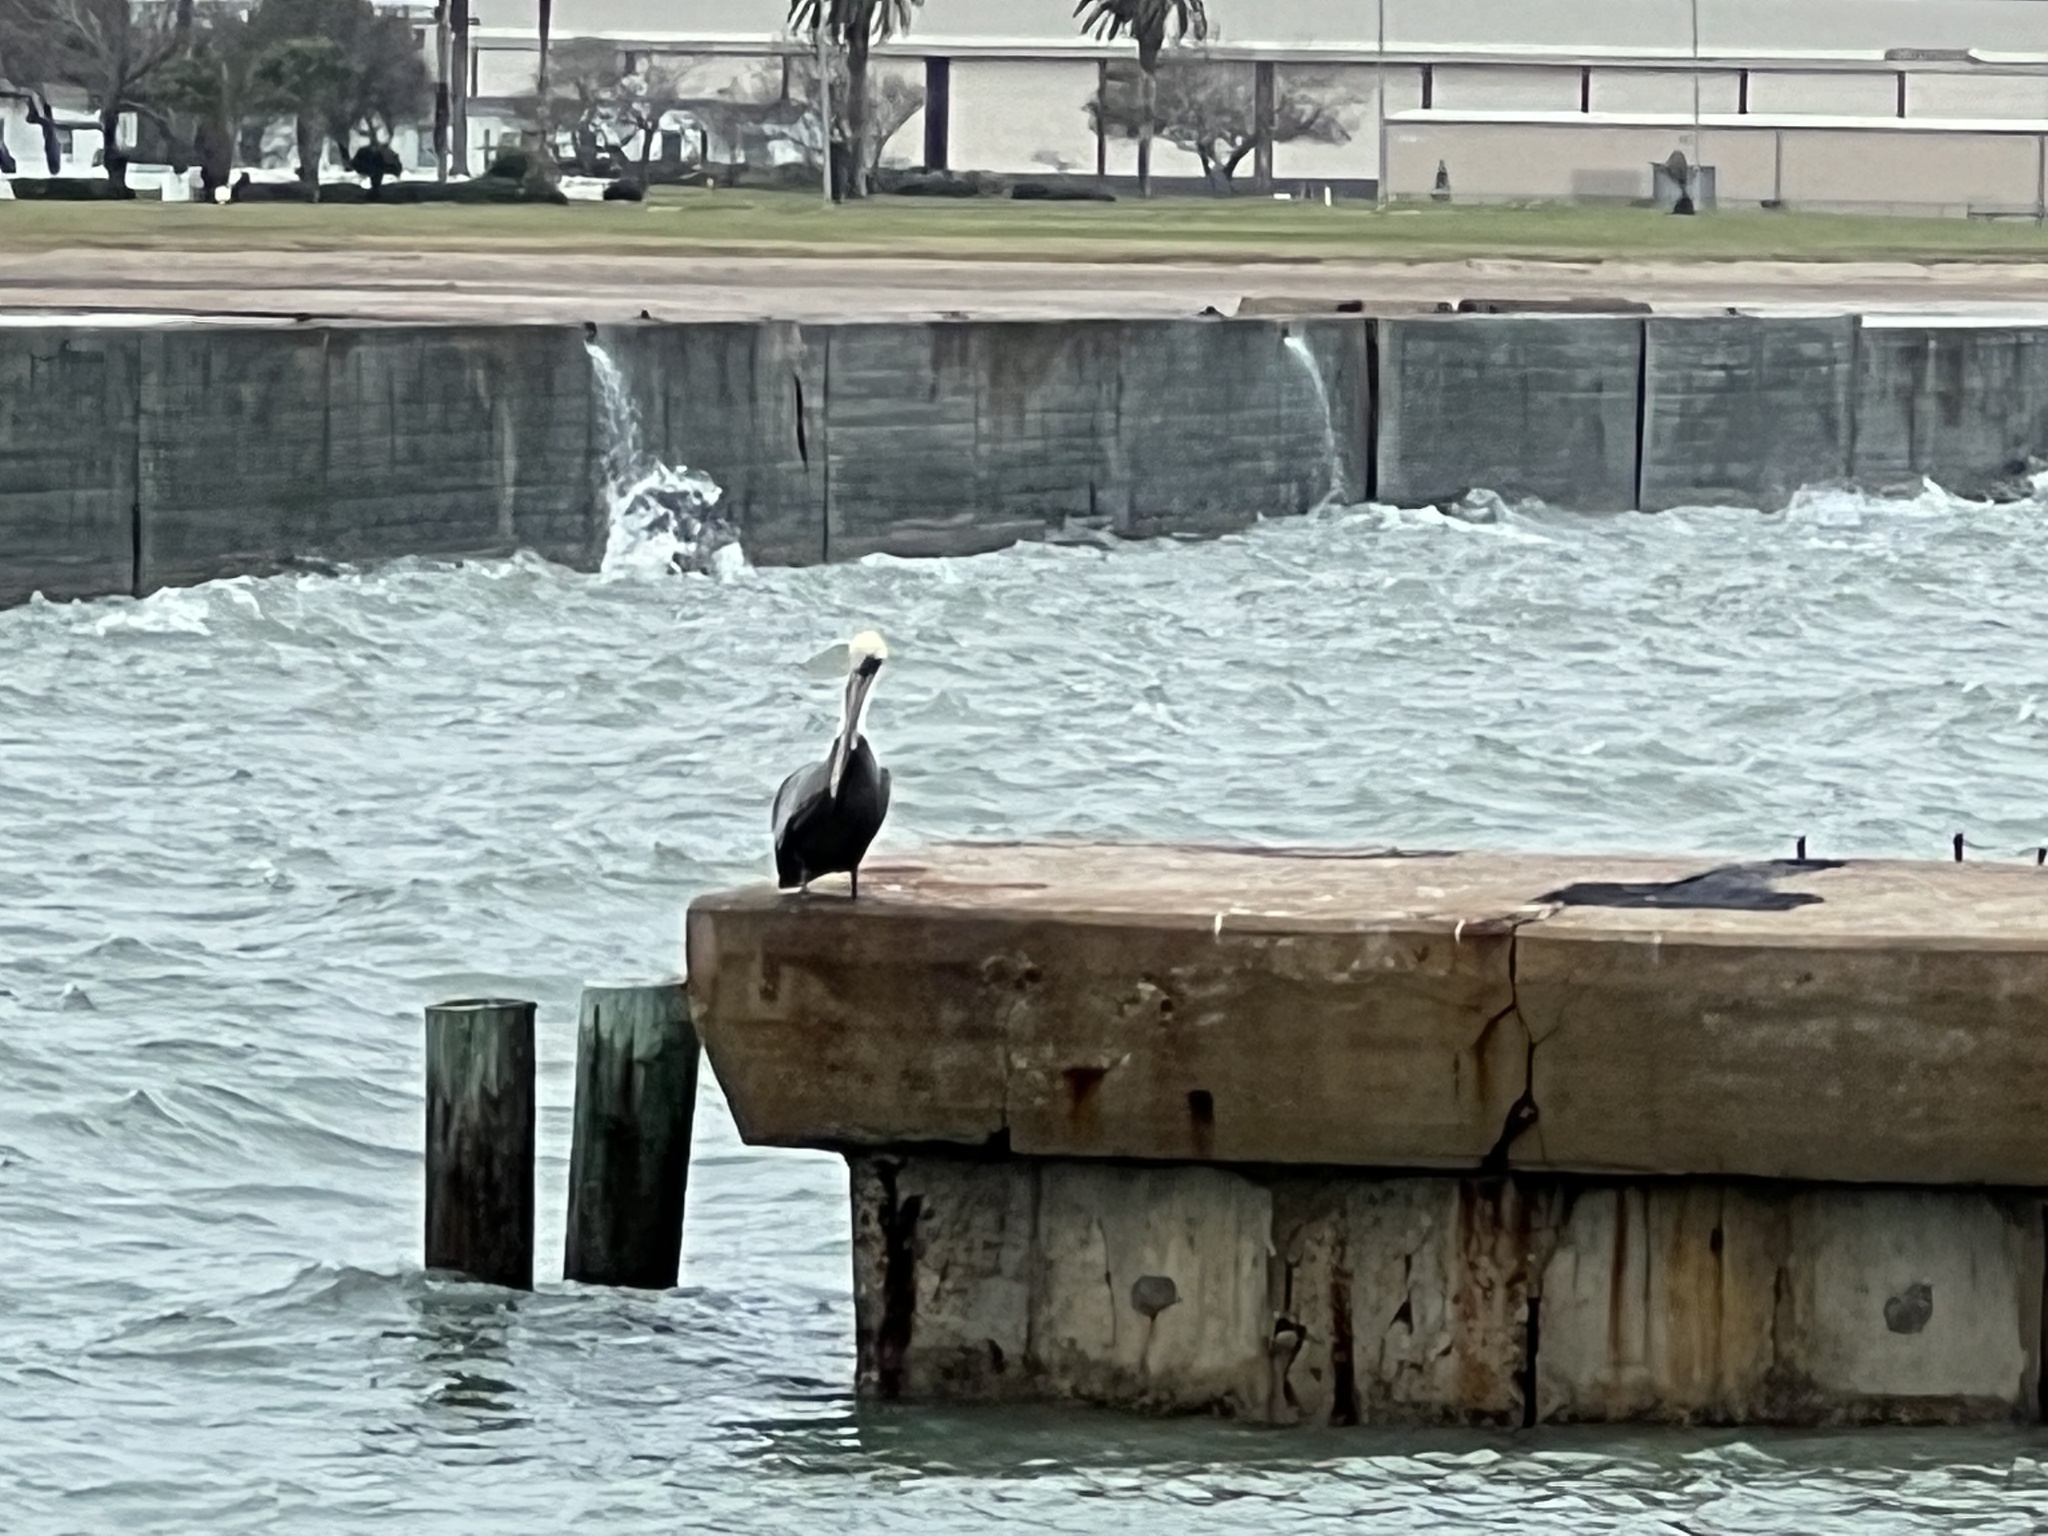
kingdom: Animalia
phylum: Chordata
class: Aves
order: Pelecaniformes
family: Pelecanidae
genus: Pelecanus
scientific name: Pelecanus occidentalis
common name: Brown pelican
